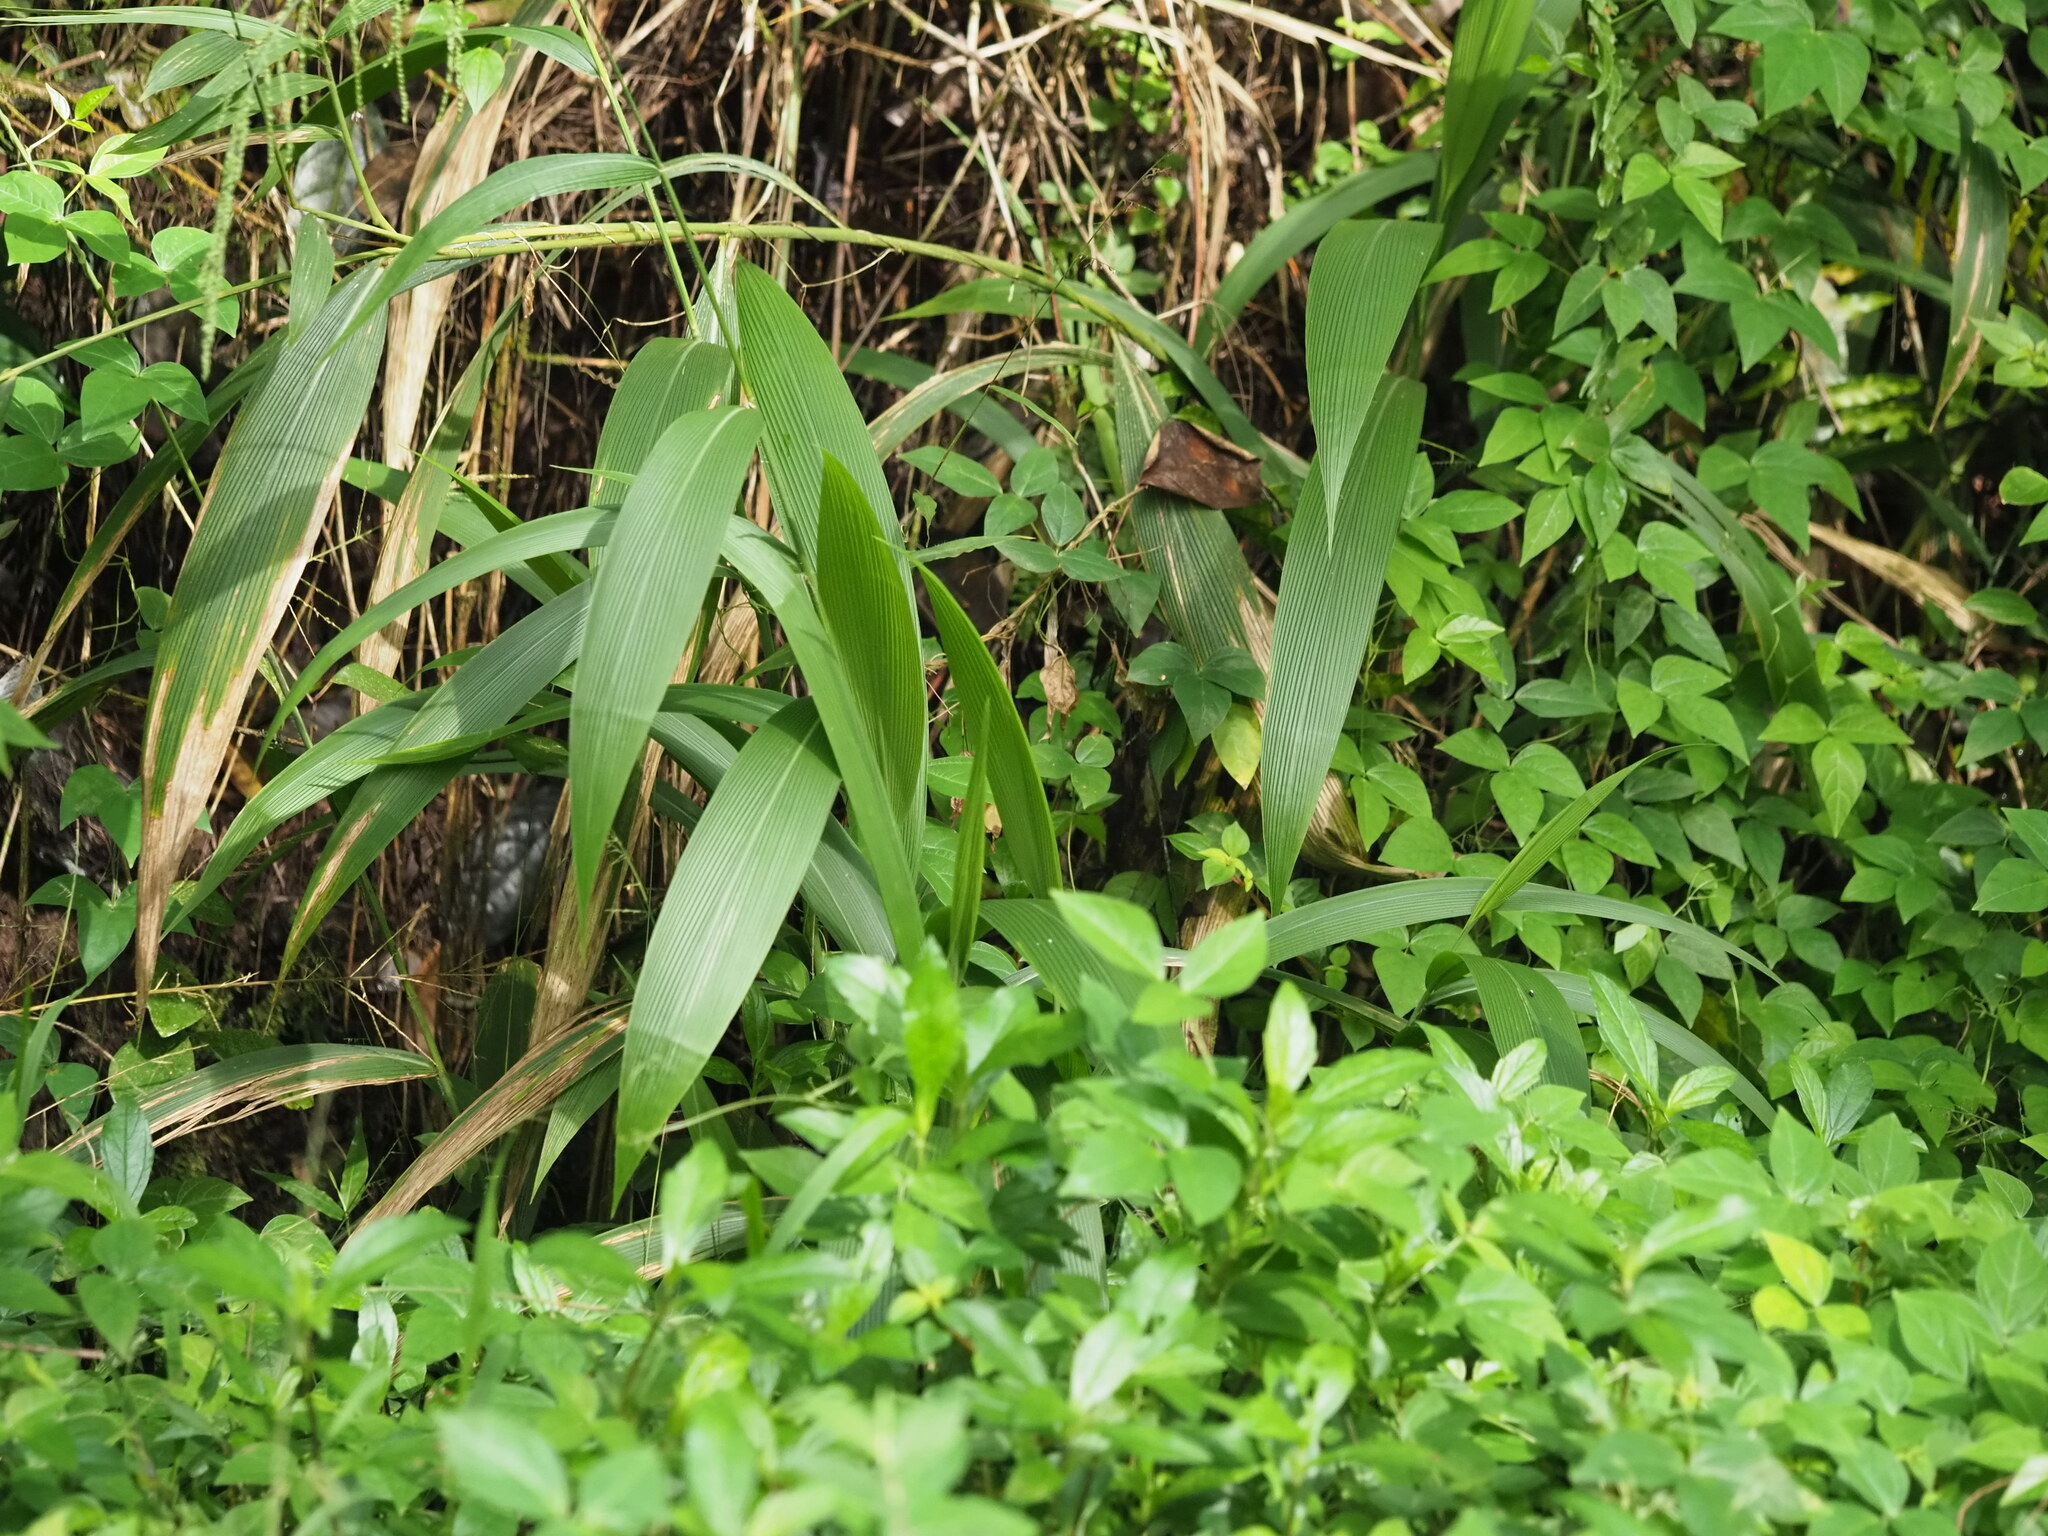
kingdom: Plantae
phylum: Tracheophyta
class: Liliopsida
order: Poales
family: Poaceae
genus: Setaria
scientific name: Setaria palmifolia
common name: Broadleaved bristlegrass
